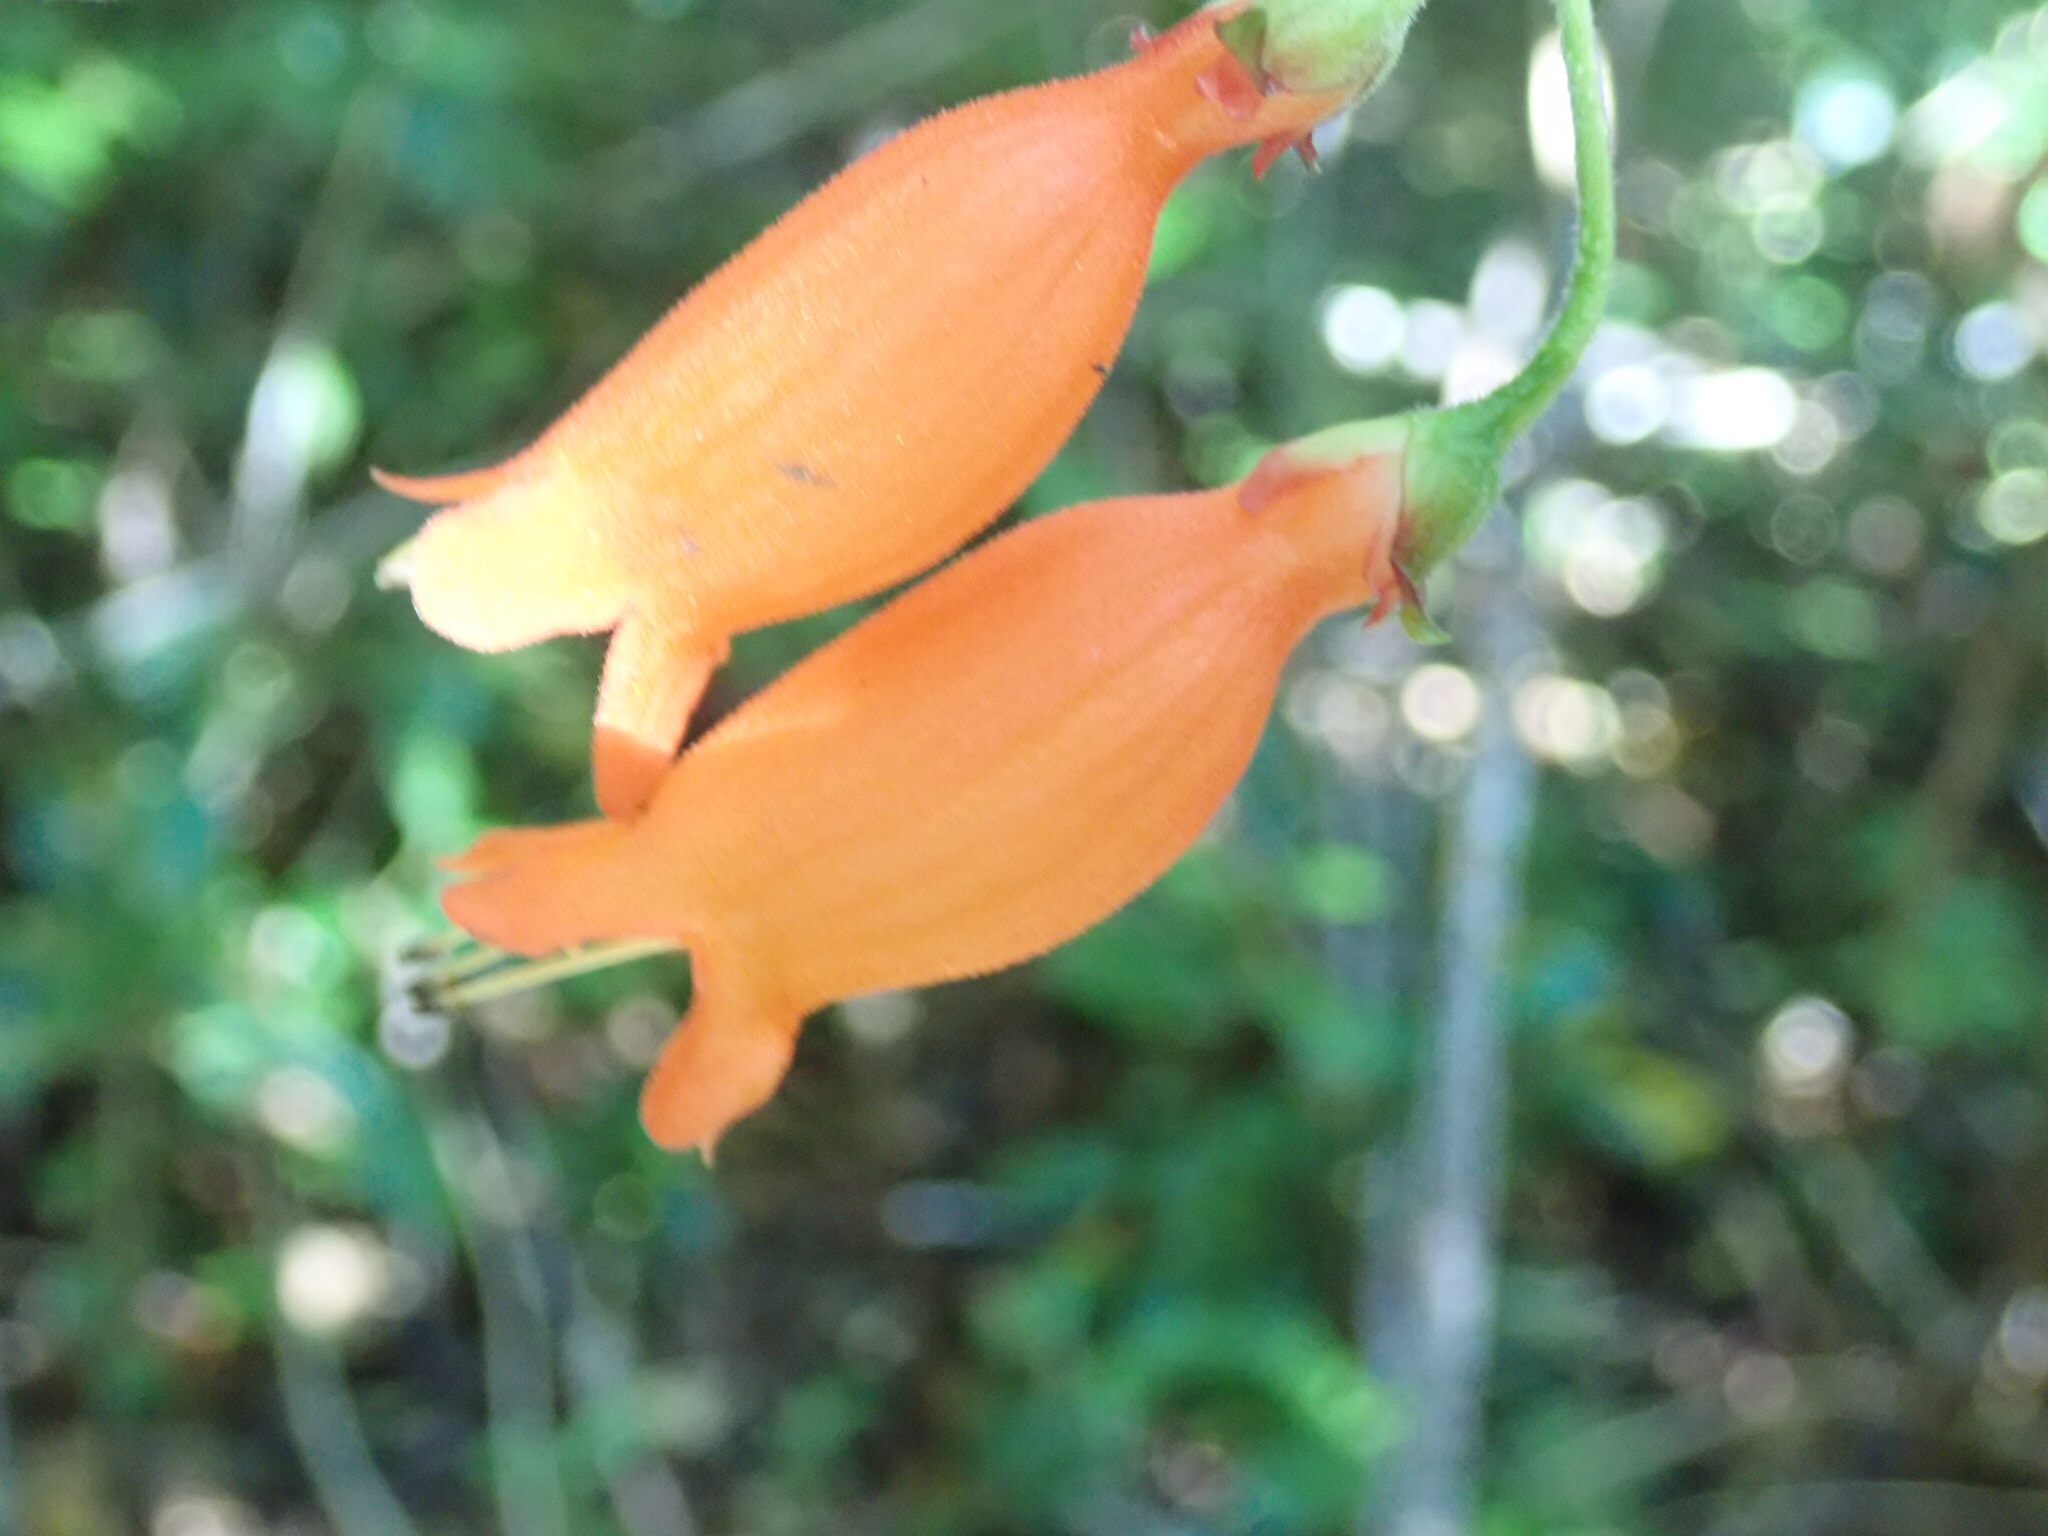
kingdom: Plantae
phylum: Tracheophyta
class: Magnoliopsida
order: Lamiales
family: Gesneriaceae
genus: Mitraria
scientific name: Mitraria coccinea
